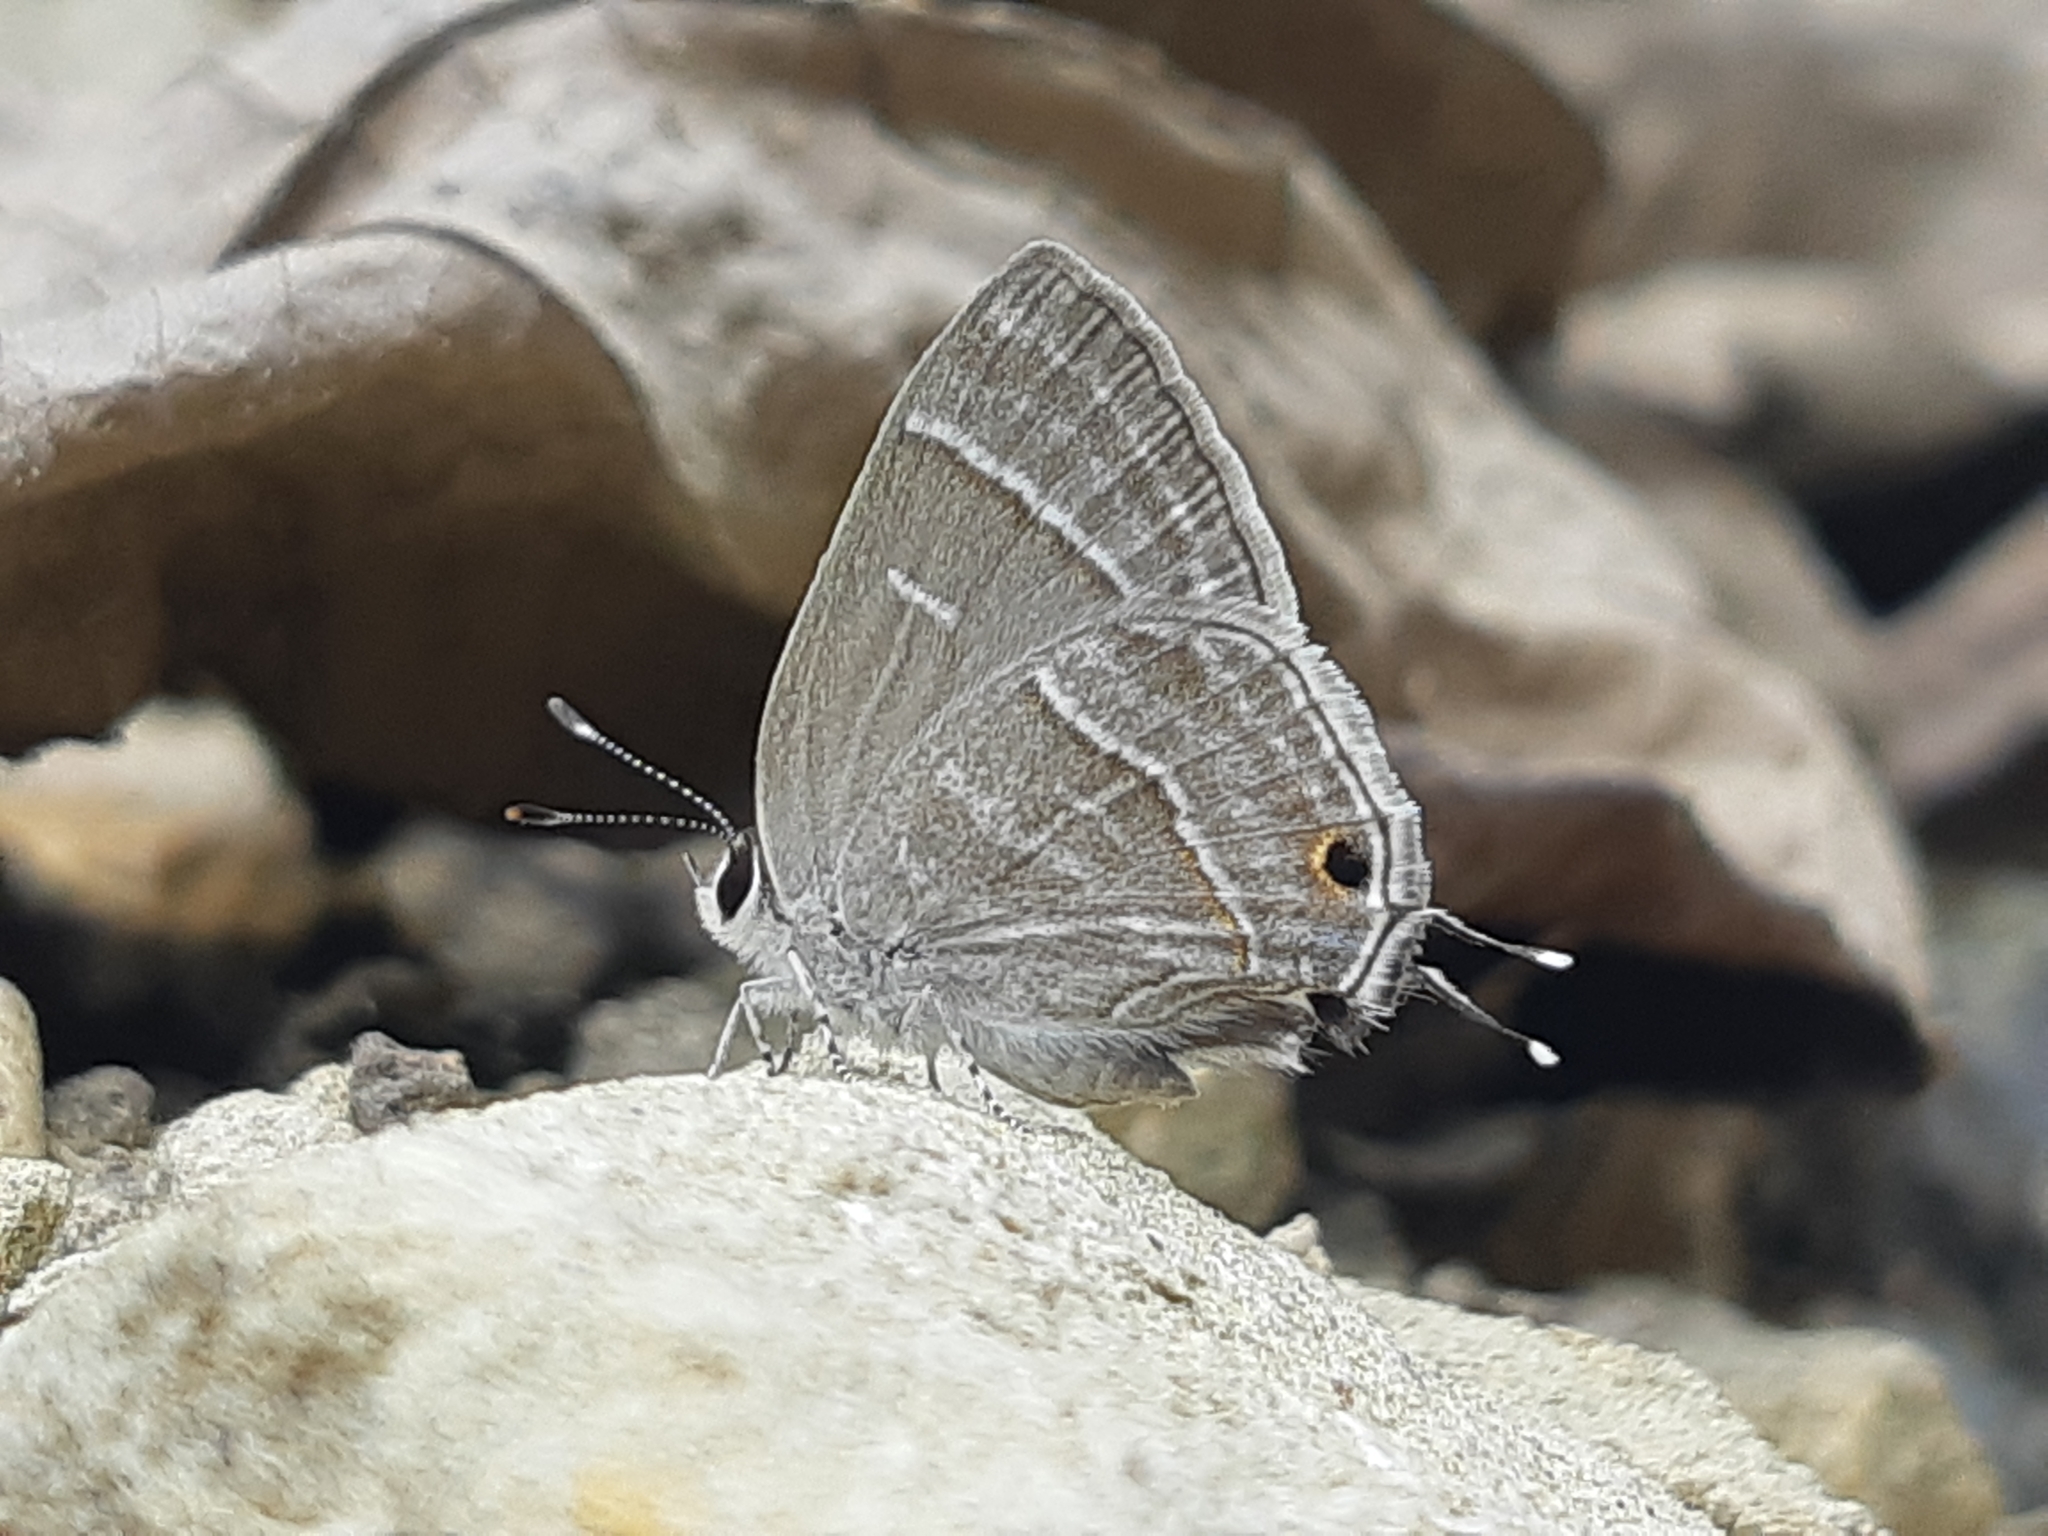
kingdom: Animalia
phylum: Arthropoda
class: Insecta
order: Lepidoptera
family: Lycaenidae
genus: Strymon
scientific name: Strymon
